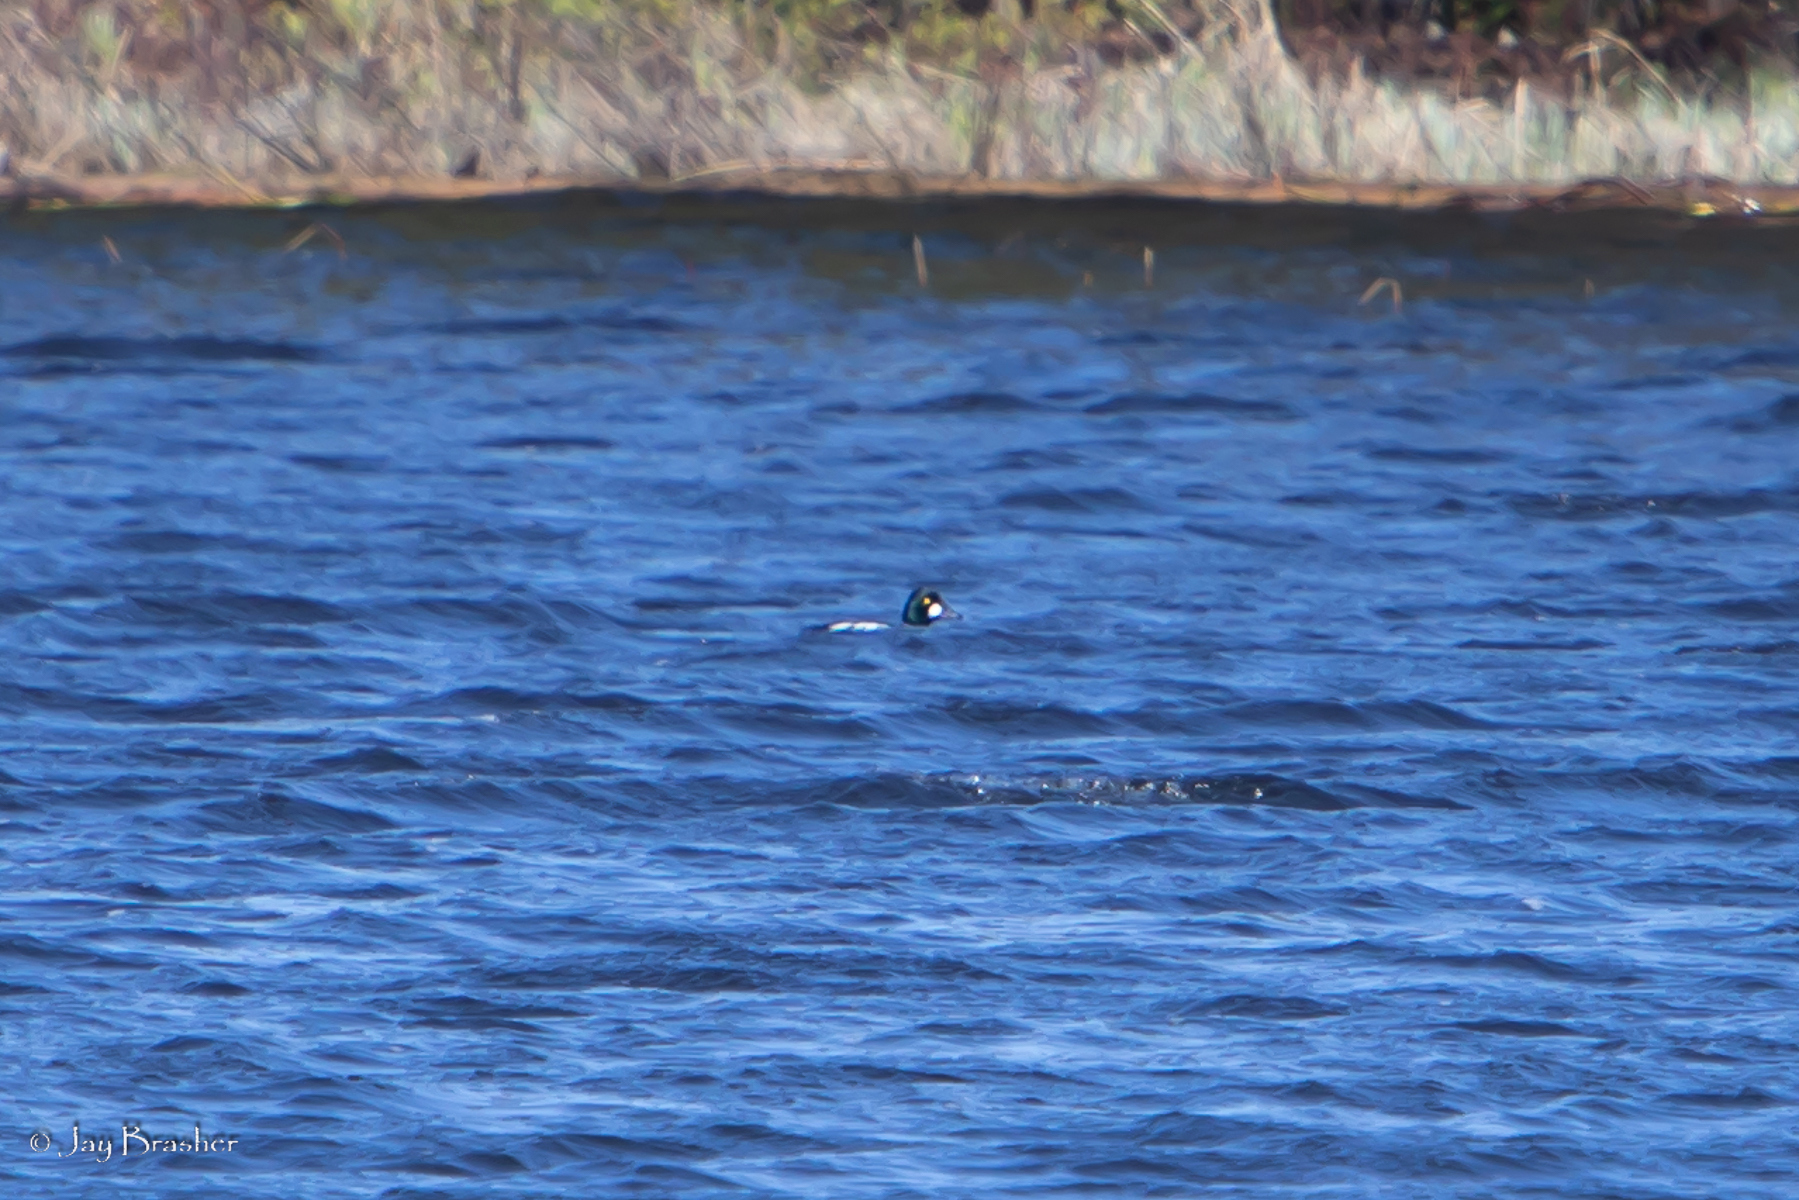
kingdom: Animalia
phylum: Chordata
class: Aves
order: Anseriformes
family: Anatidae
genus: Bucephala
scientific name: Bucephala clangula
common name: Common goldeneye
